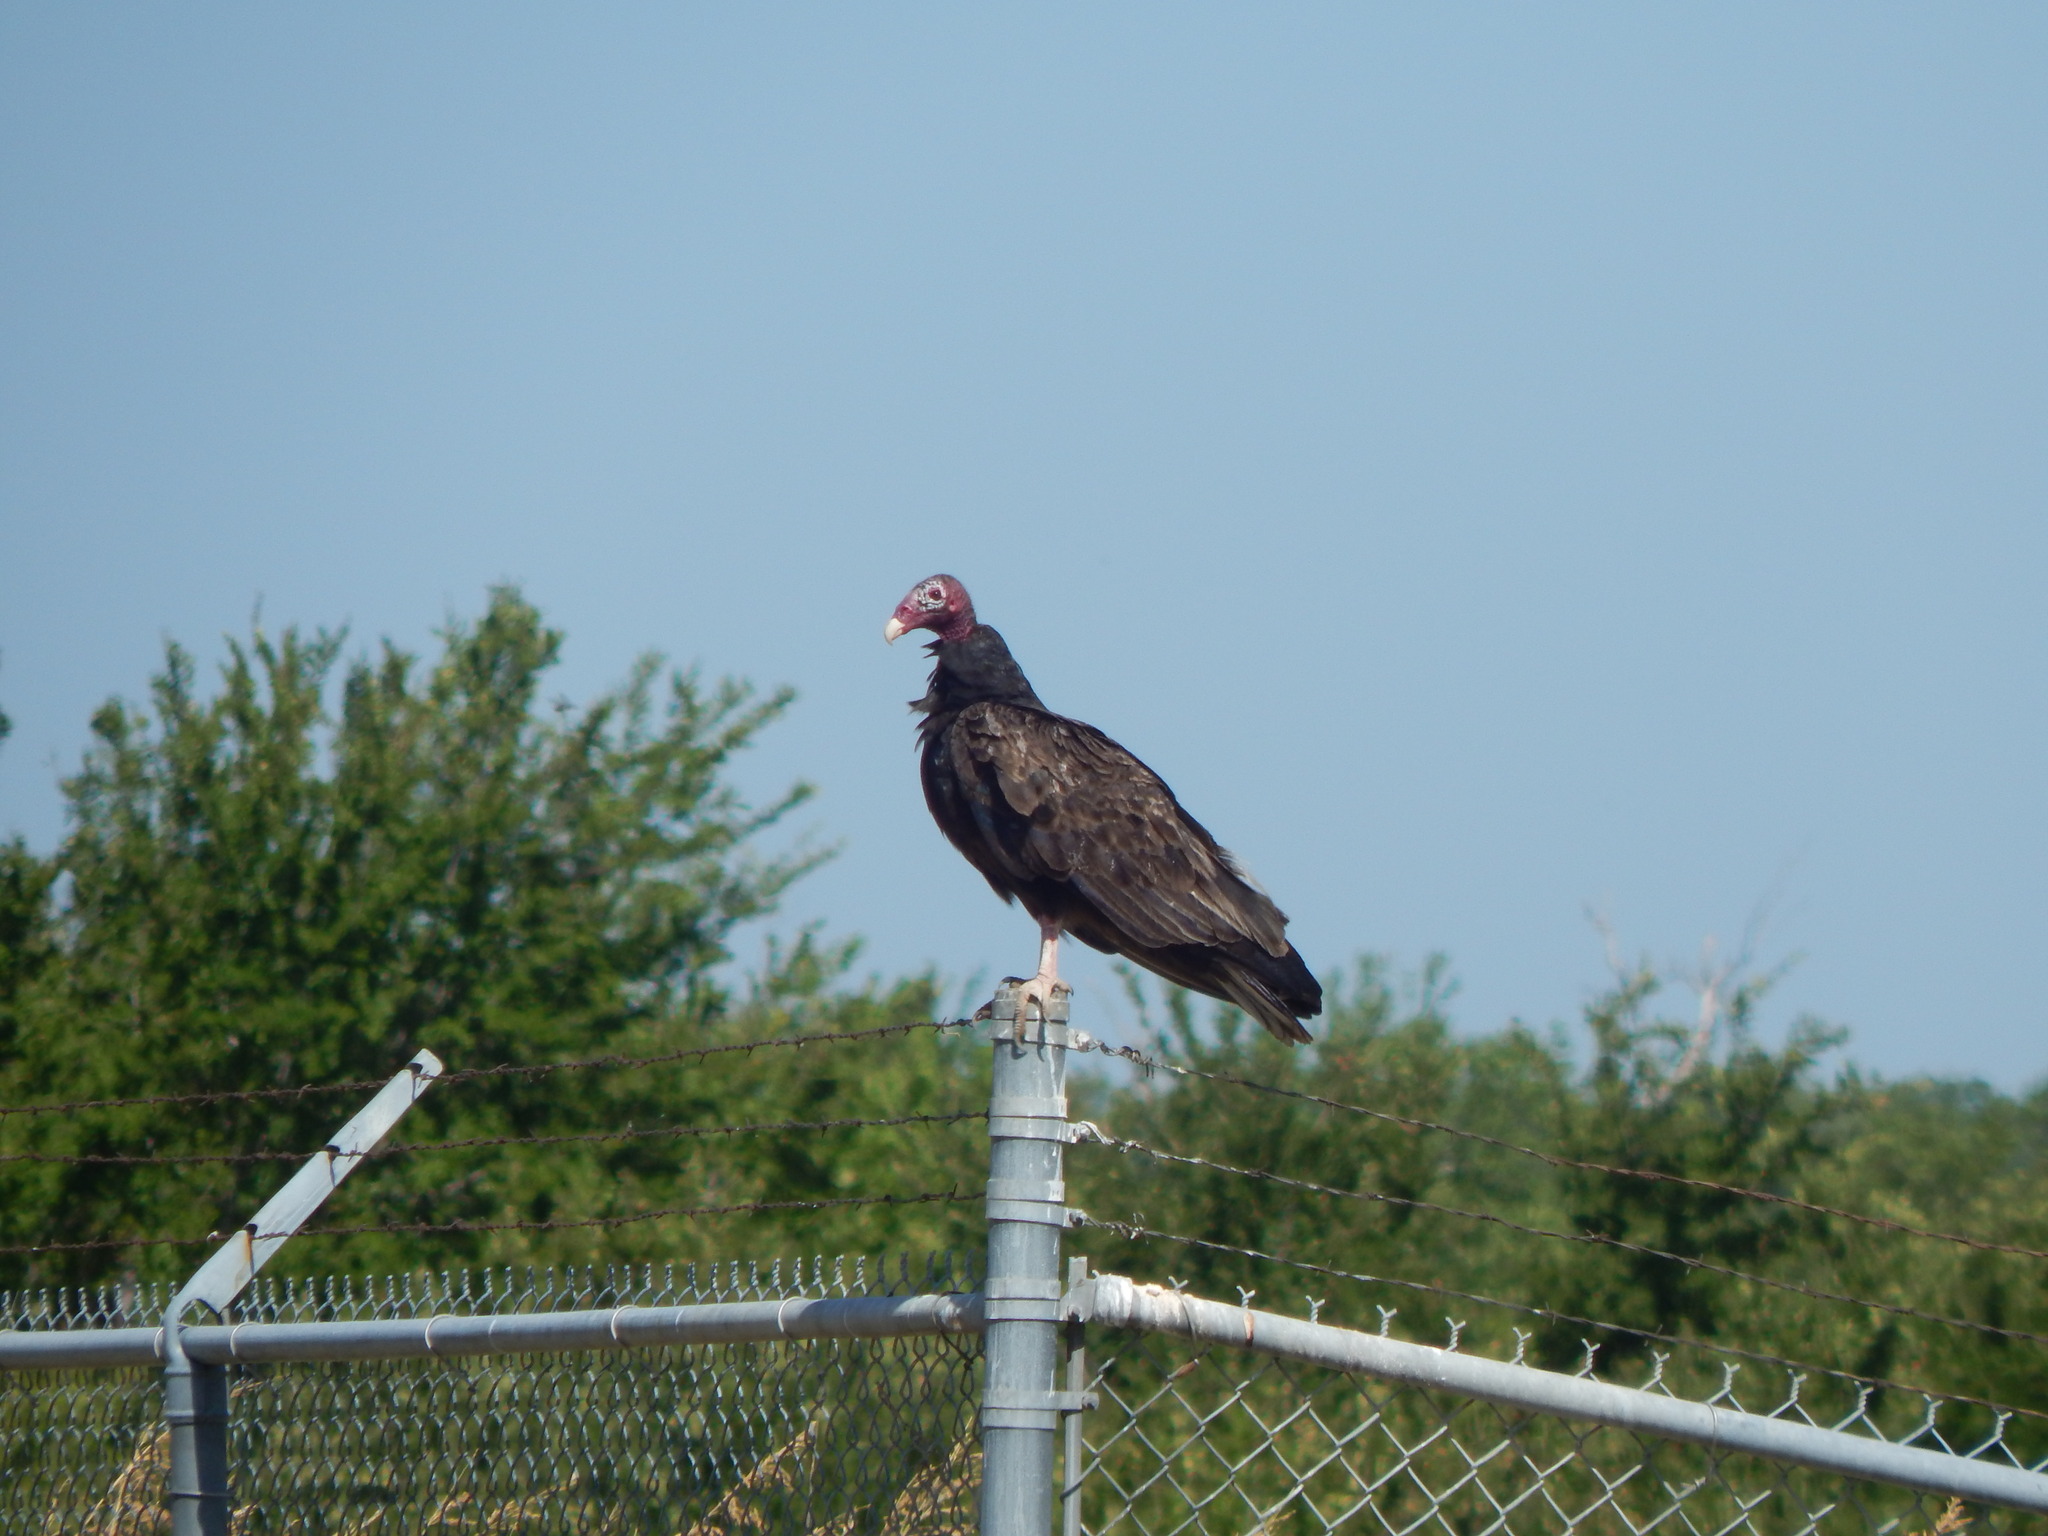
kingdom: Animalia
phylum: Chordata
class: Aves
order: Accipitriformes
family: Cathartidae
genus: Cathartes
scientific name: Cathartes aura
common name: Turkey vulture
